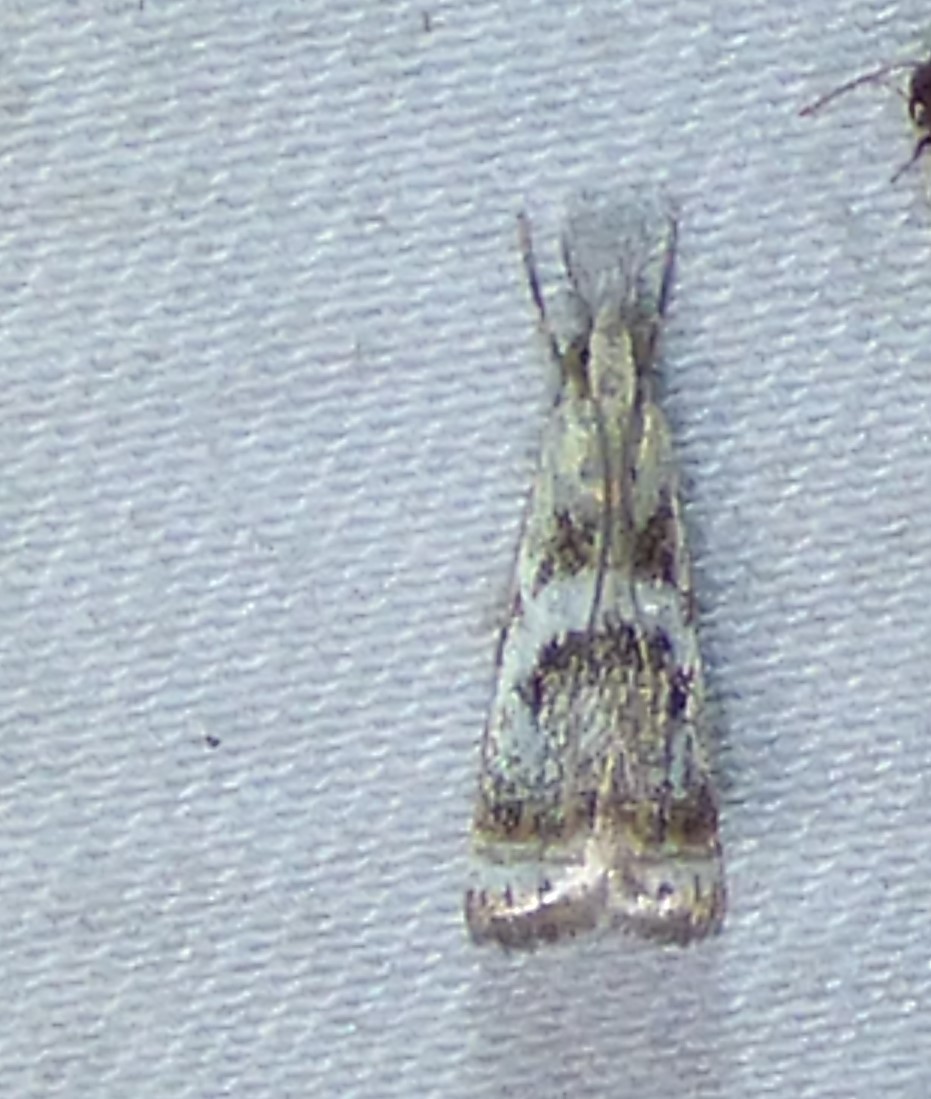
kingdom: Animalia
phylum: Arthropoda
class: Insecta
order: Lepidoptera
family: Crambidae
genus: Microcrambus
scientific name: Microcrambus elegans
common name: Elegant grass-veneer
